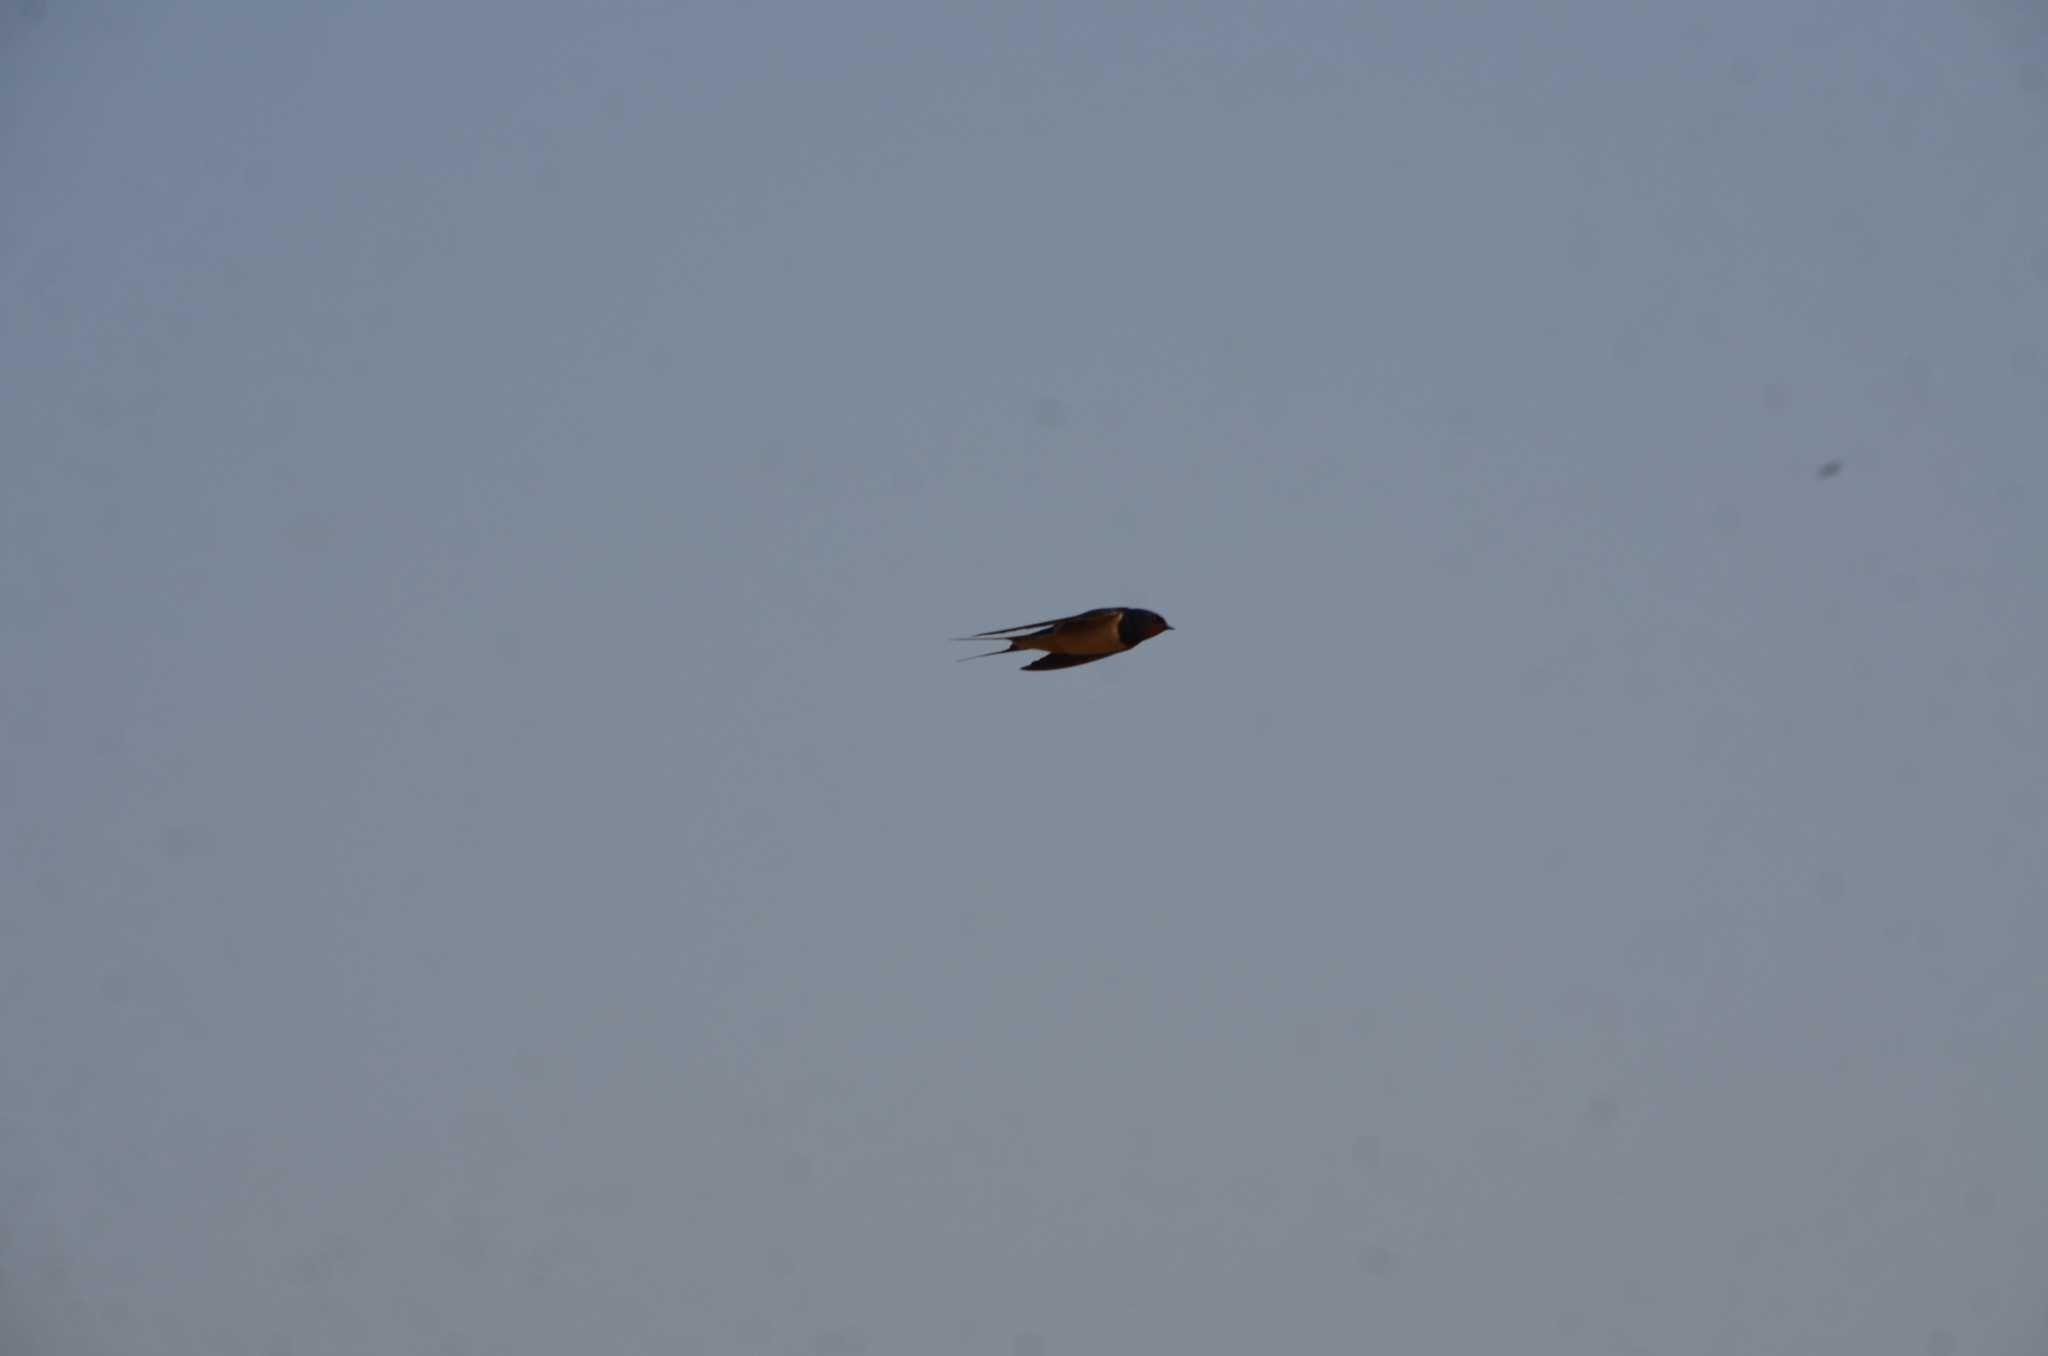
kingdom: Animalia
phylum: Chordata
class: Aves
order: Passeriformes
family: Hirundinidae
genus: Hirundo
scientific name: Hirundo rustica
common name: Barn swallow
